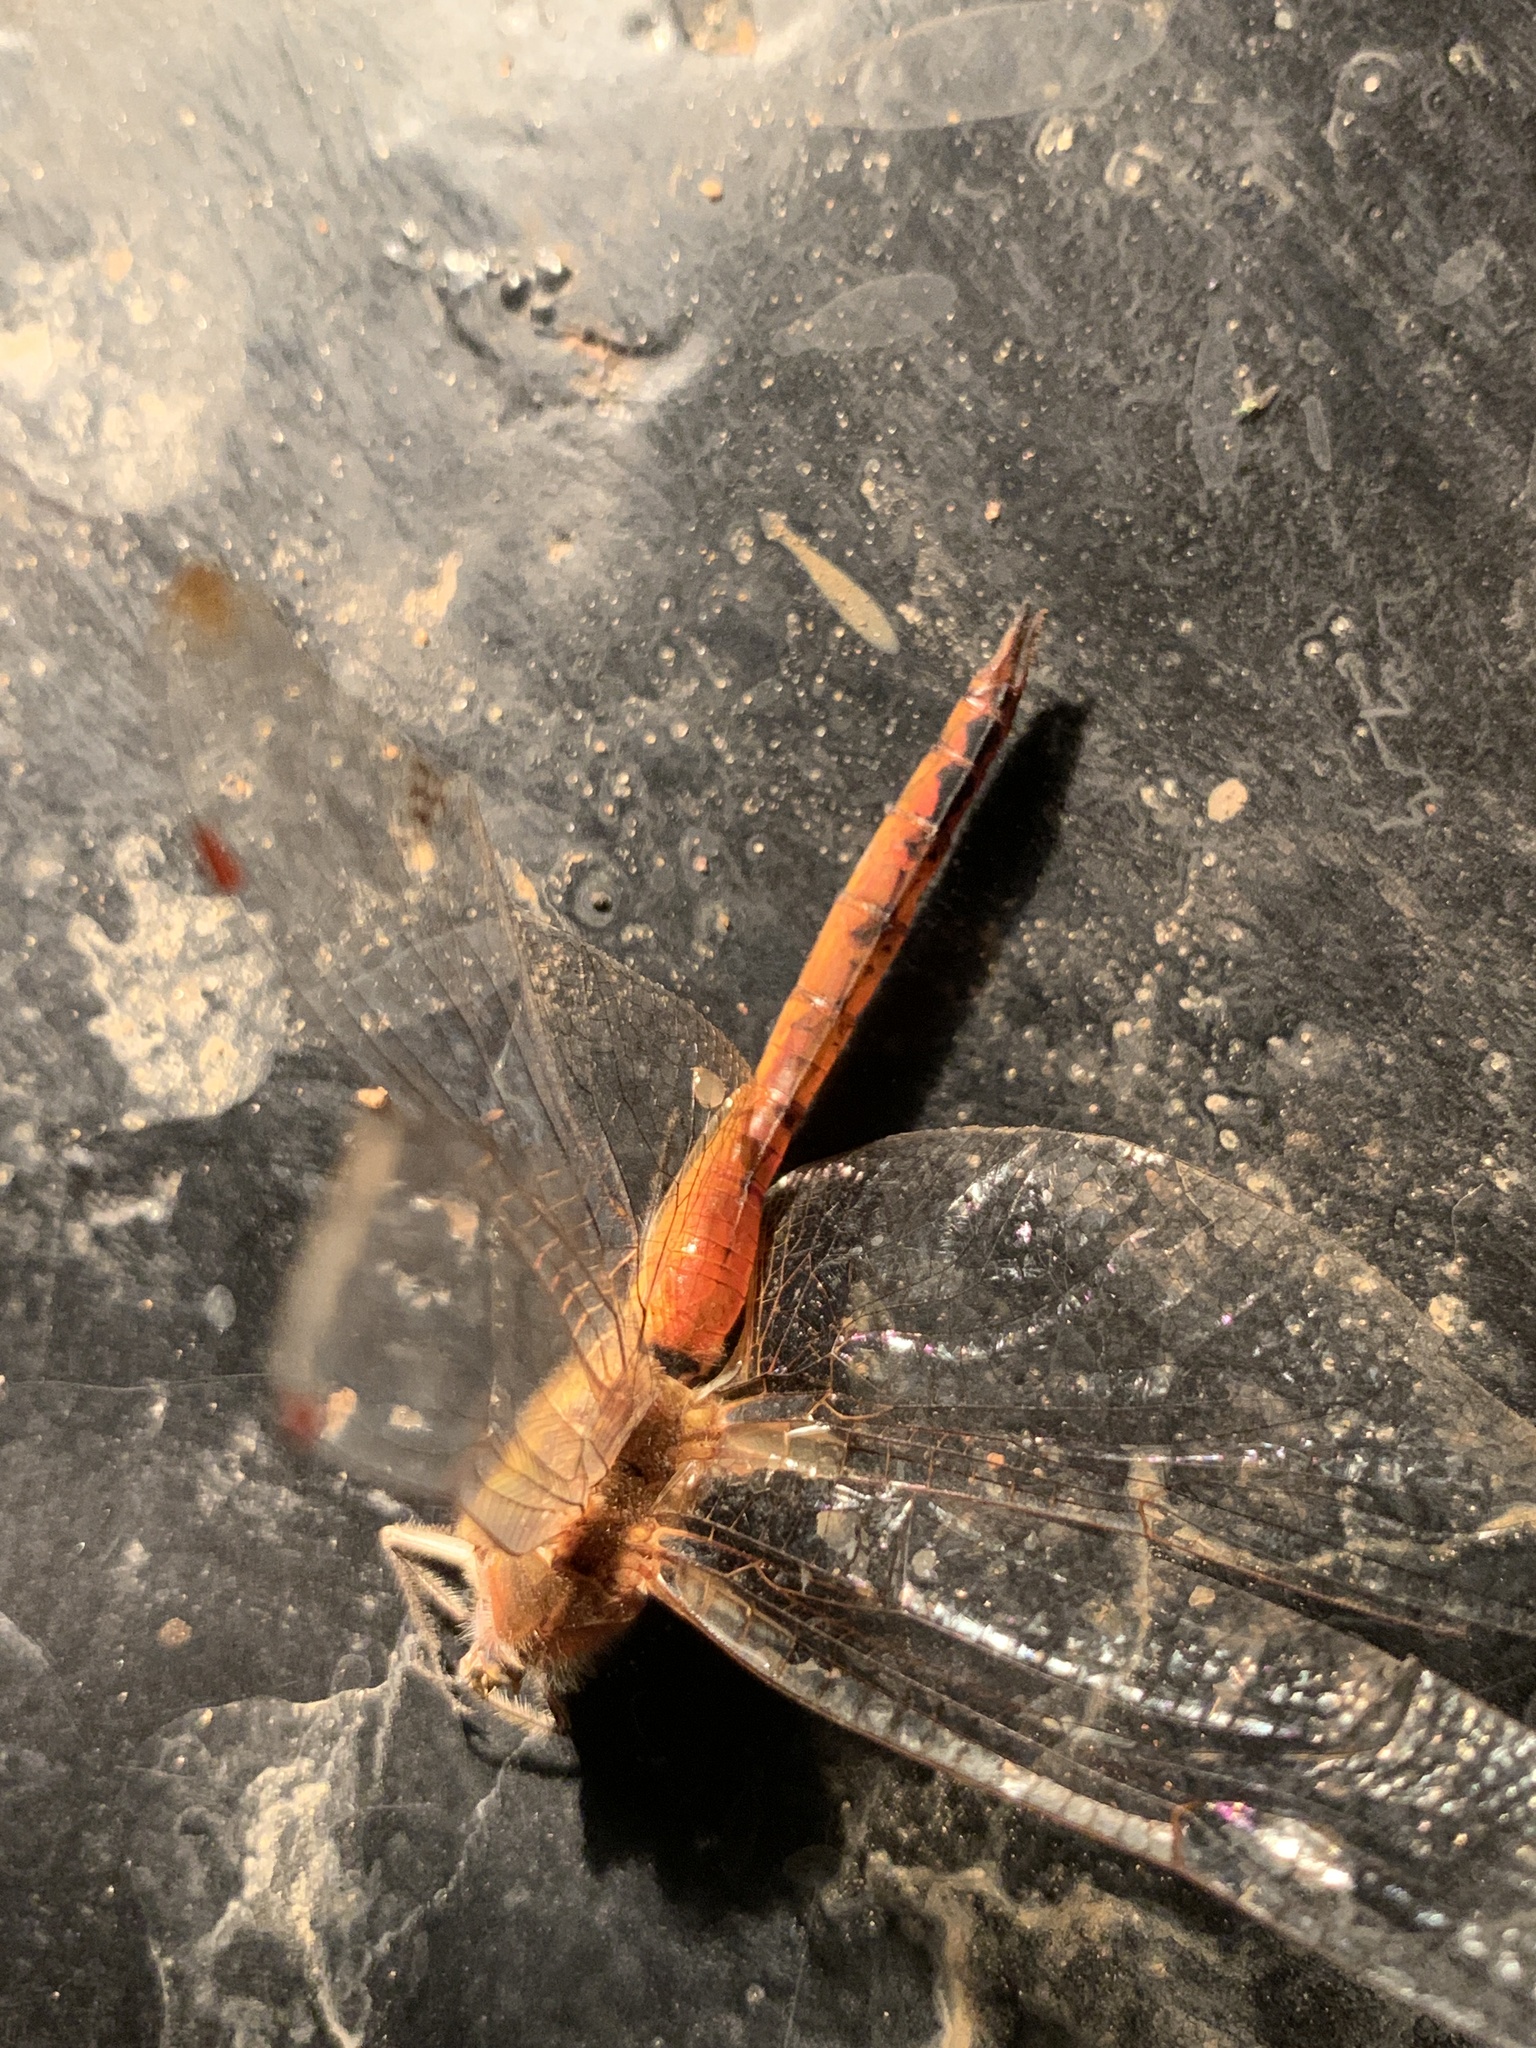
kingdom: Animalia
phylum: Arthropoda
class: Insecta
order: Odonata
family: Libellulidae
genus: Pantala
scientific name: Pantala flavescens
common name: Wandering glider
